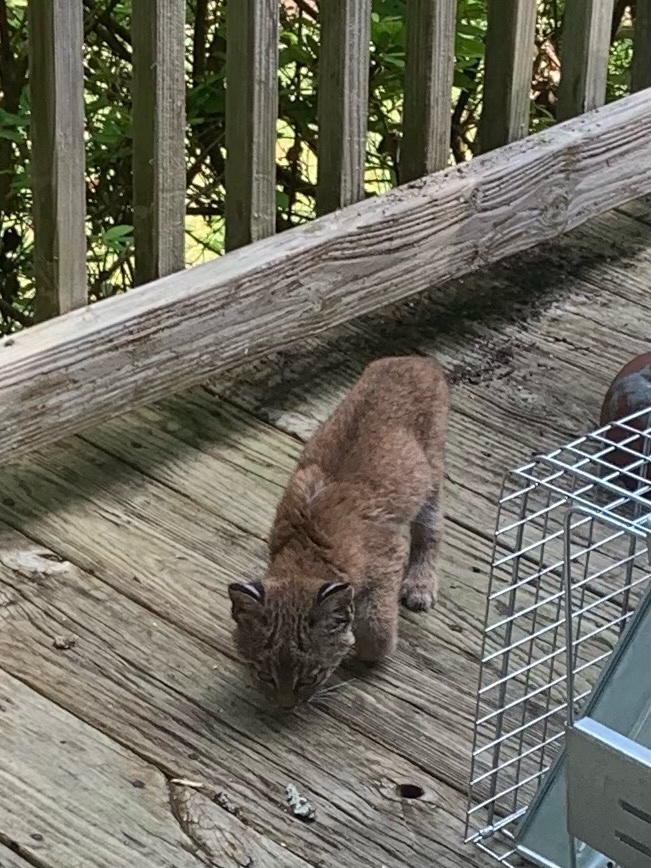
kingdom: Animalia
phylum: Chordata
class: Mammalia
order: Carnivora
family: Felidae
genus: Lynx
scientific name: Lynx rufus
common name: Bobcat
